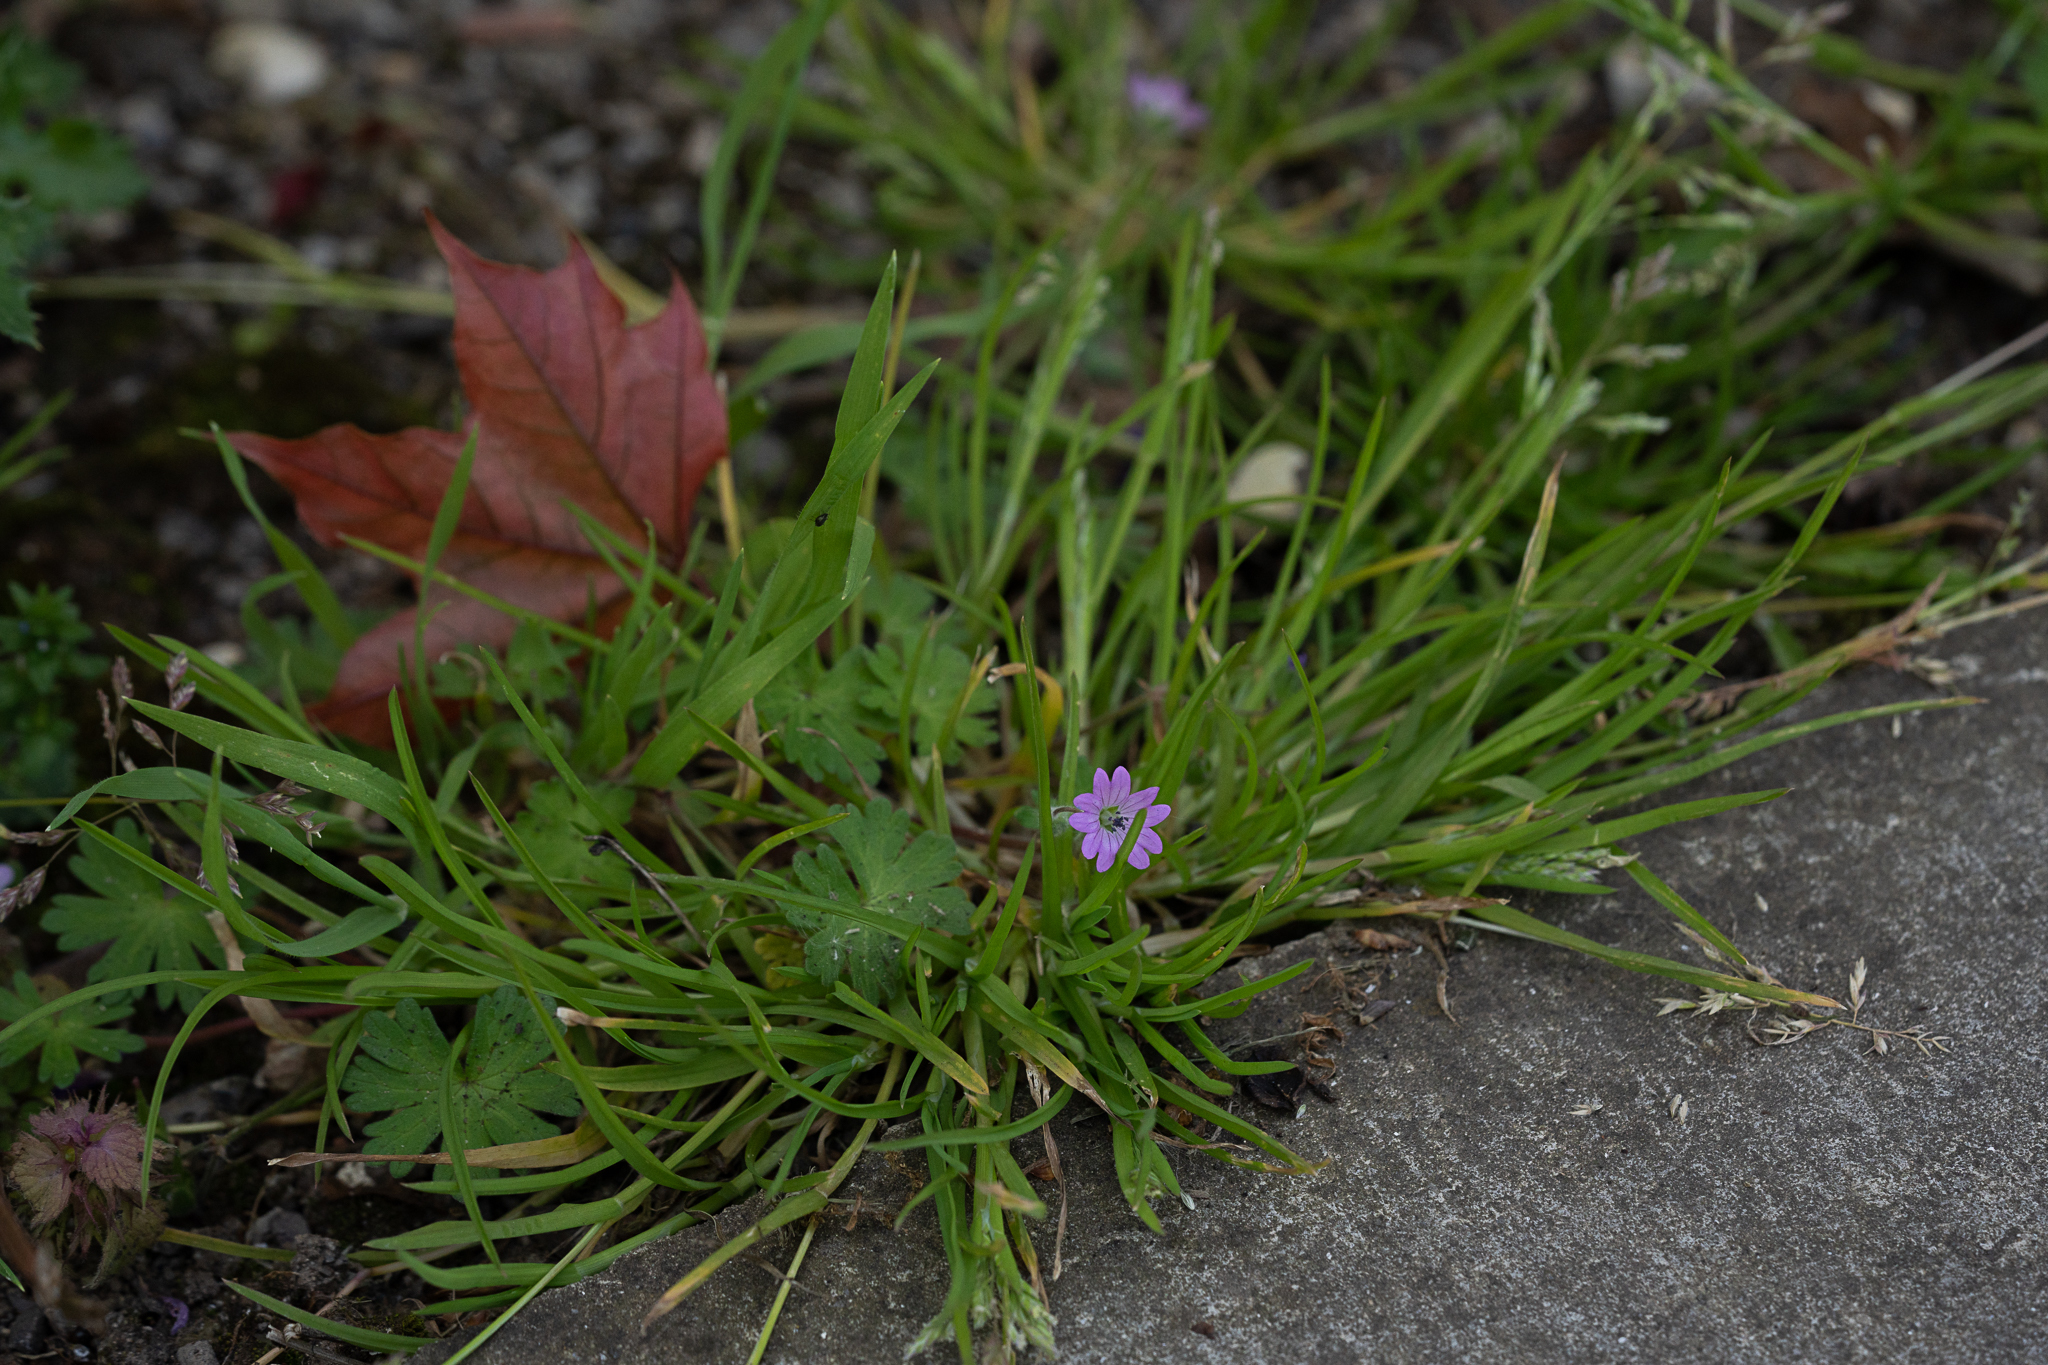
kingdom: Plantae
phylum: Tracheophyta
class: Magnoliopsida
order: Geraniales
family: Geraniaceae
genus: Geranium
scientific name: Geranium pyrenaicum
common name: Hedgerow crane's-bill
